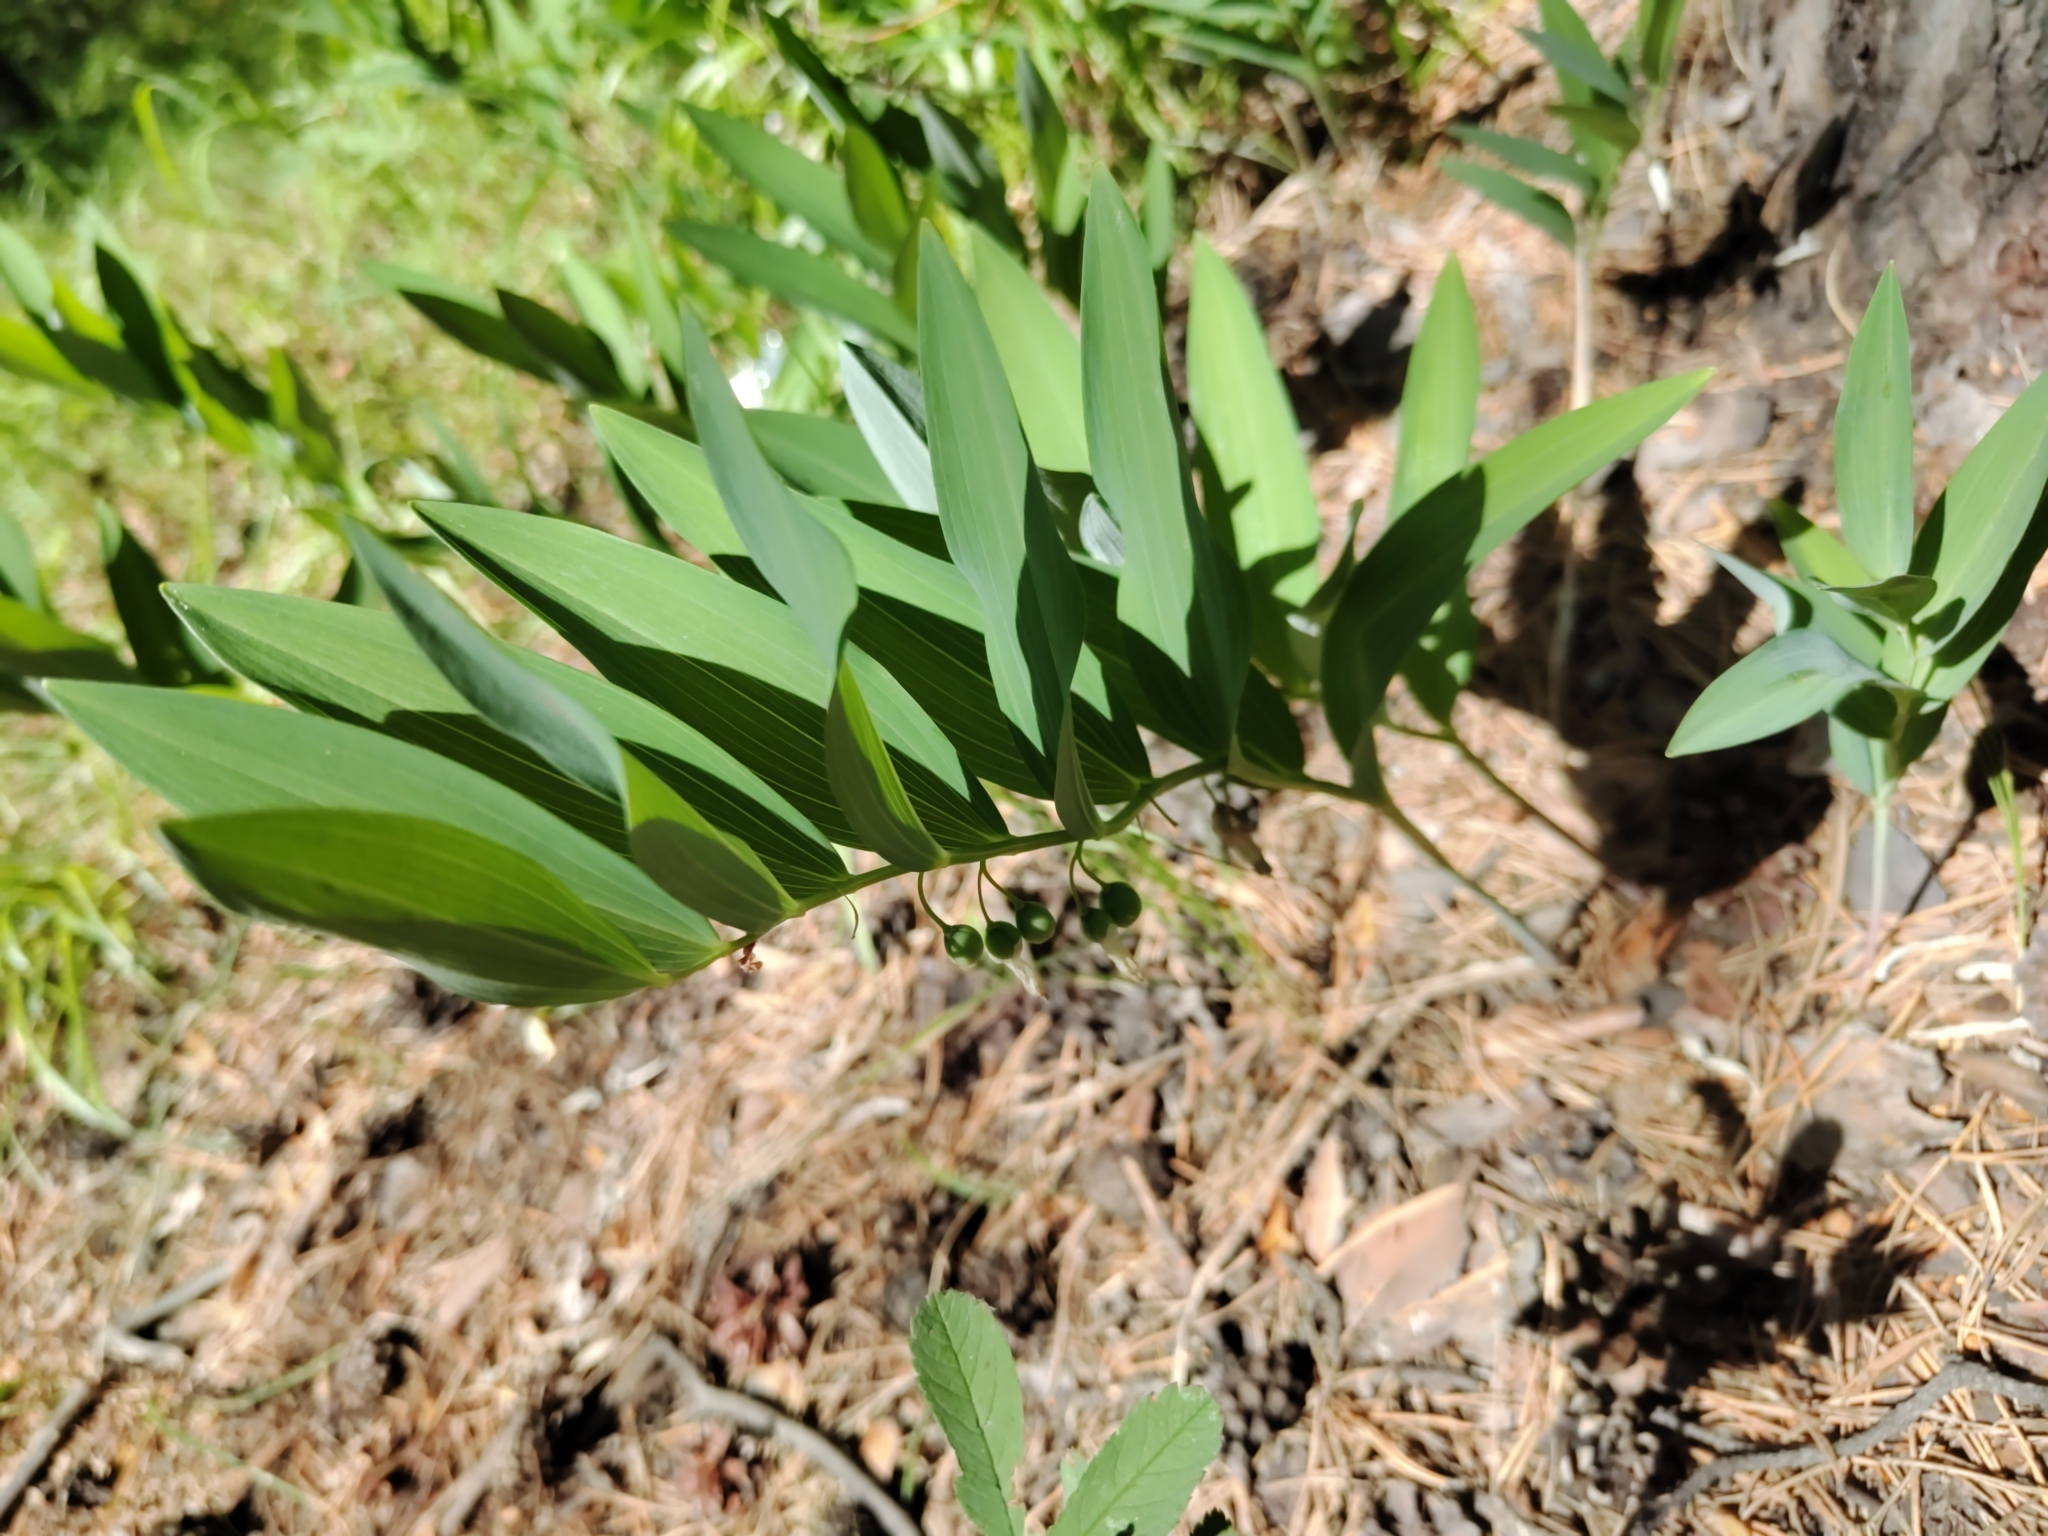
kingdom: Plantae
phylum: Tracheophyta
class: Liliopsida
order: Asparagales
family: Asparagaceae
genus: Polygonatum
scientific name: Polygonatum odoratum
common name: Angular solomon's-seal
